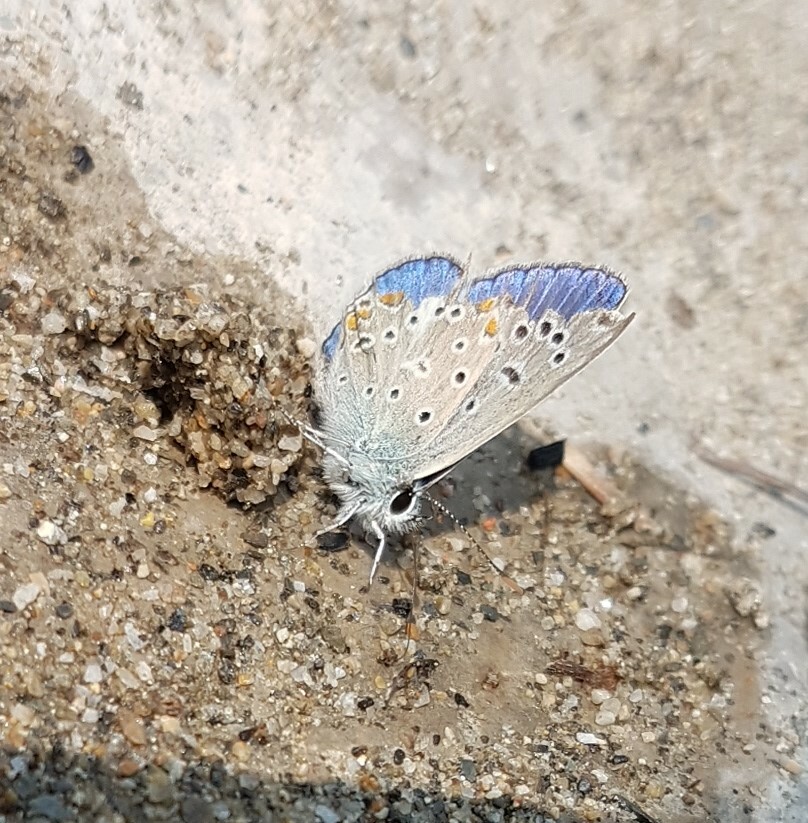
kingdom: Animalia
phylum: Arthropoda
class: Insecta
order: Lepidoptera
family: Lycaenidae
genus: Polyommatus
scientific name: Polyommatus icarus
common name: Common blue
